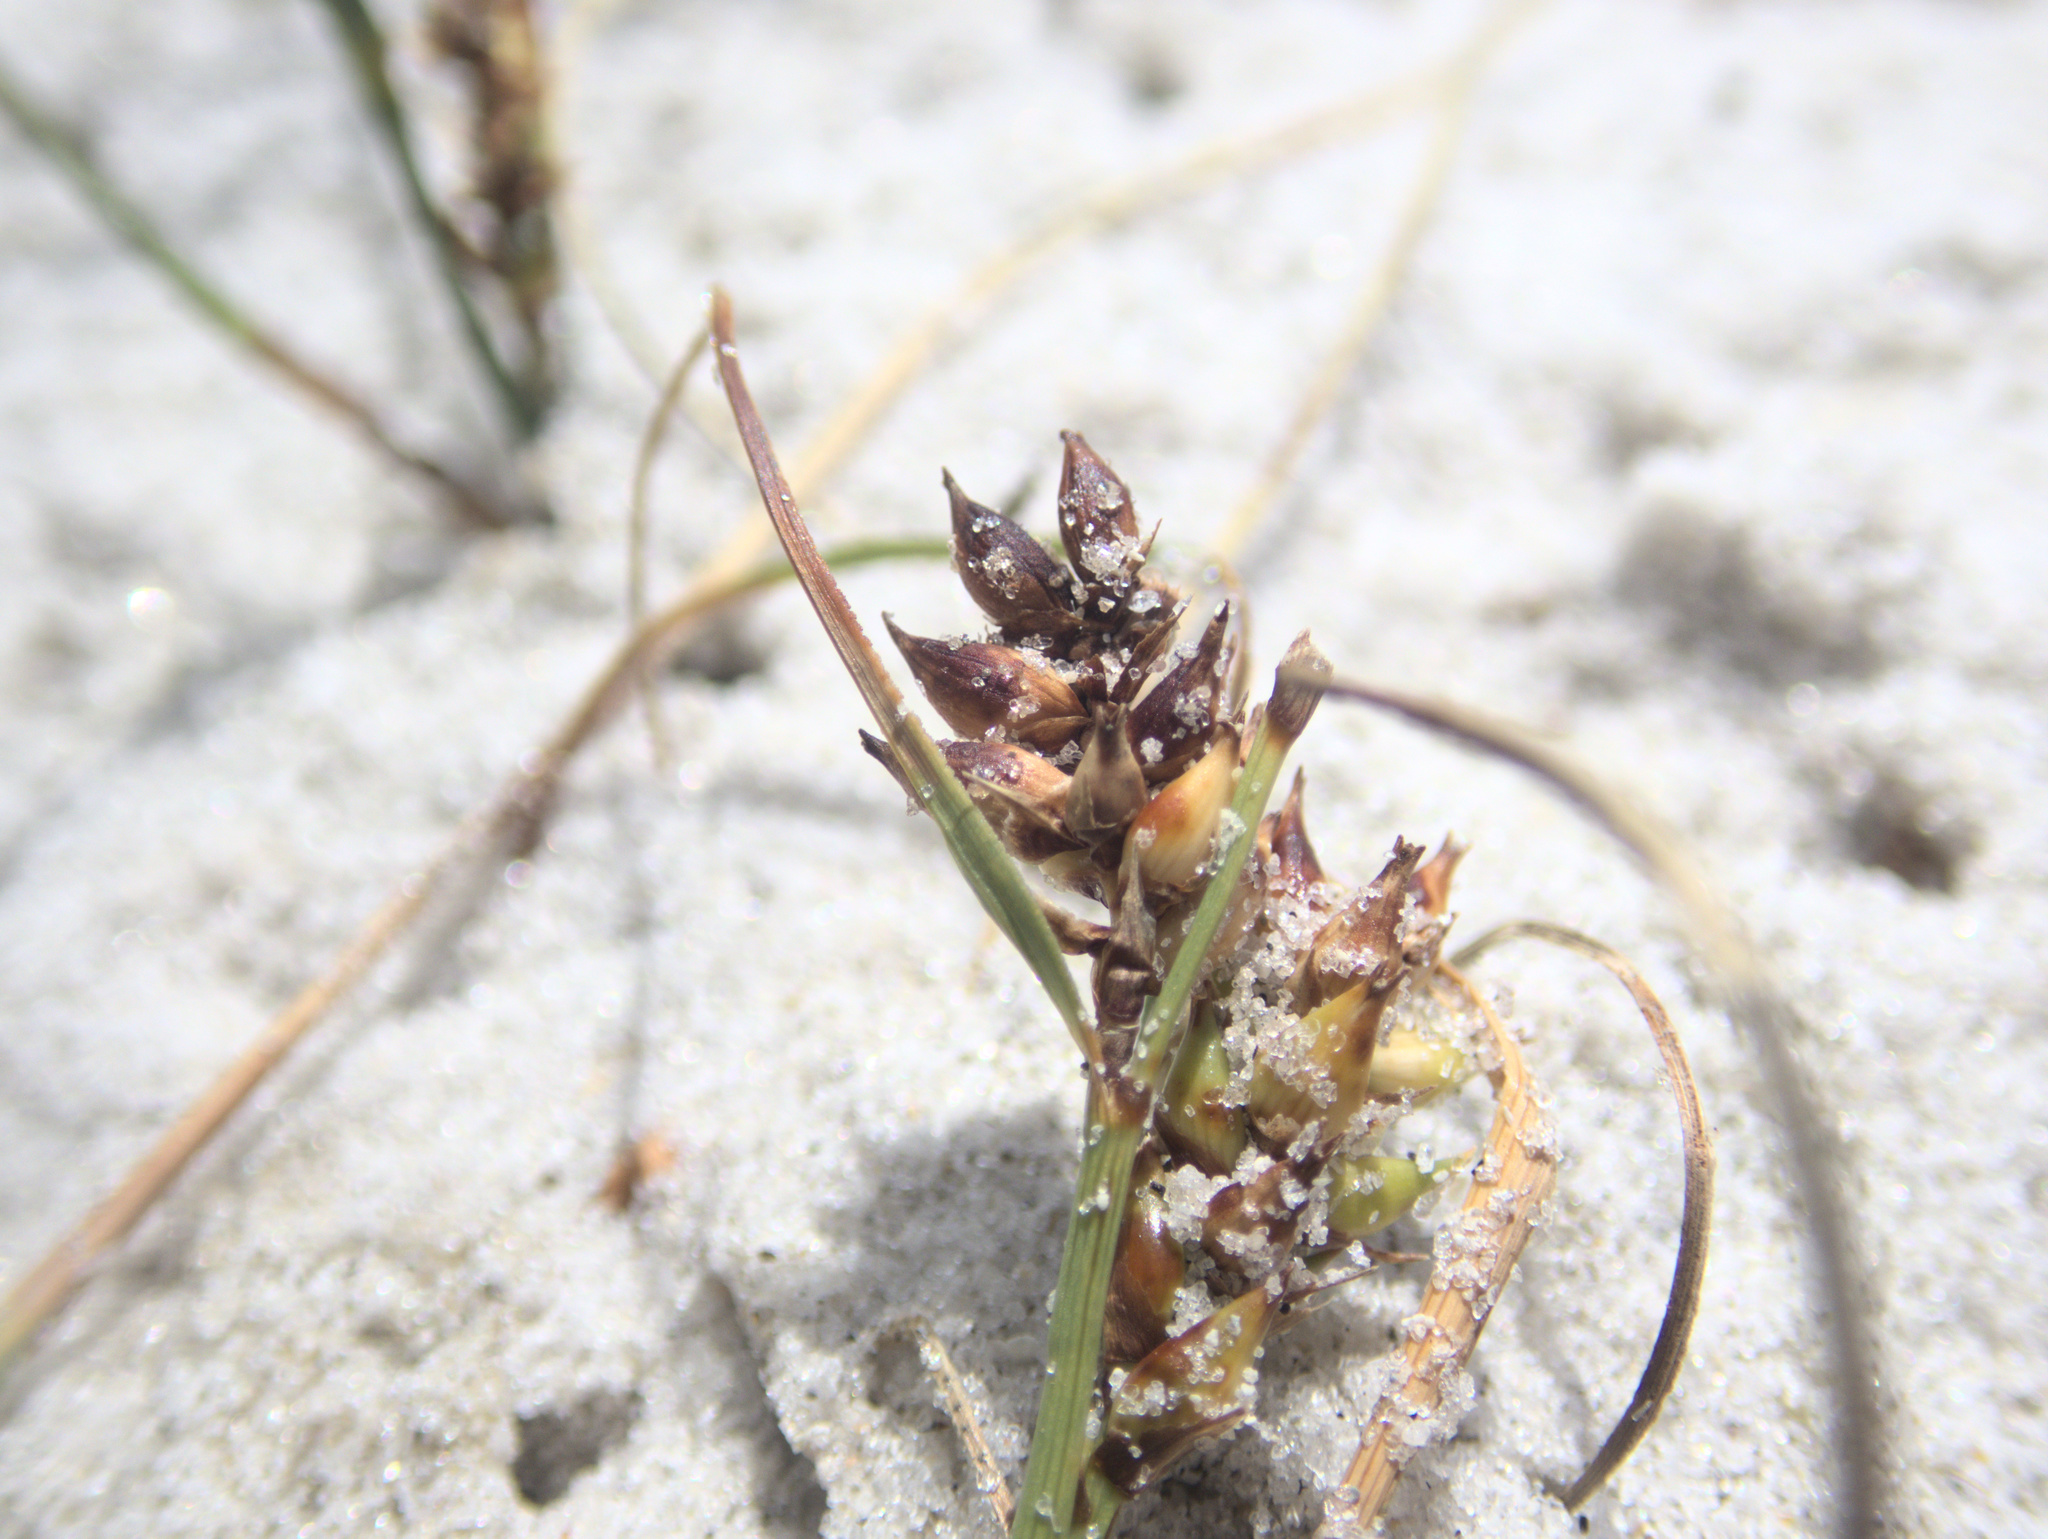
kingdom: Plantae
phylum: Tracheophyta
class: Liliopsida
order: Poales
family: Cyperaceae
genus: Carex
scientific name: Carex pumila
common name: Dwarf sedge
